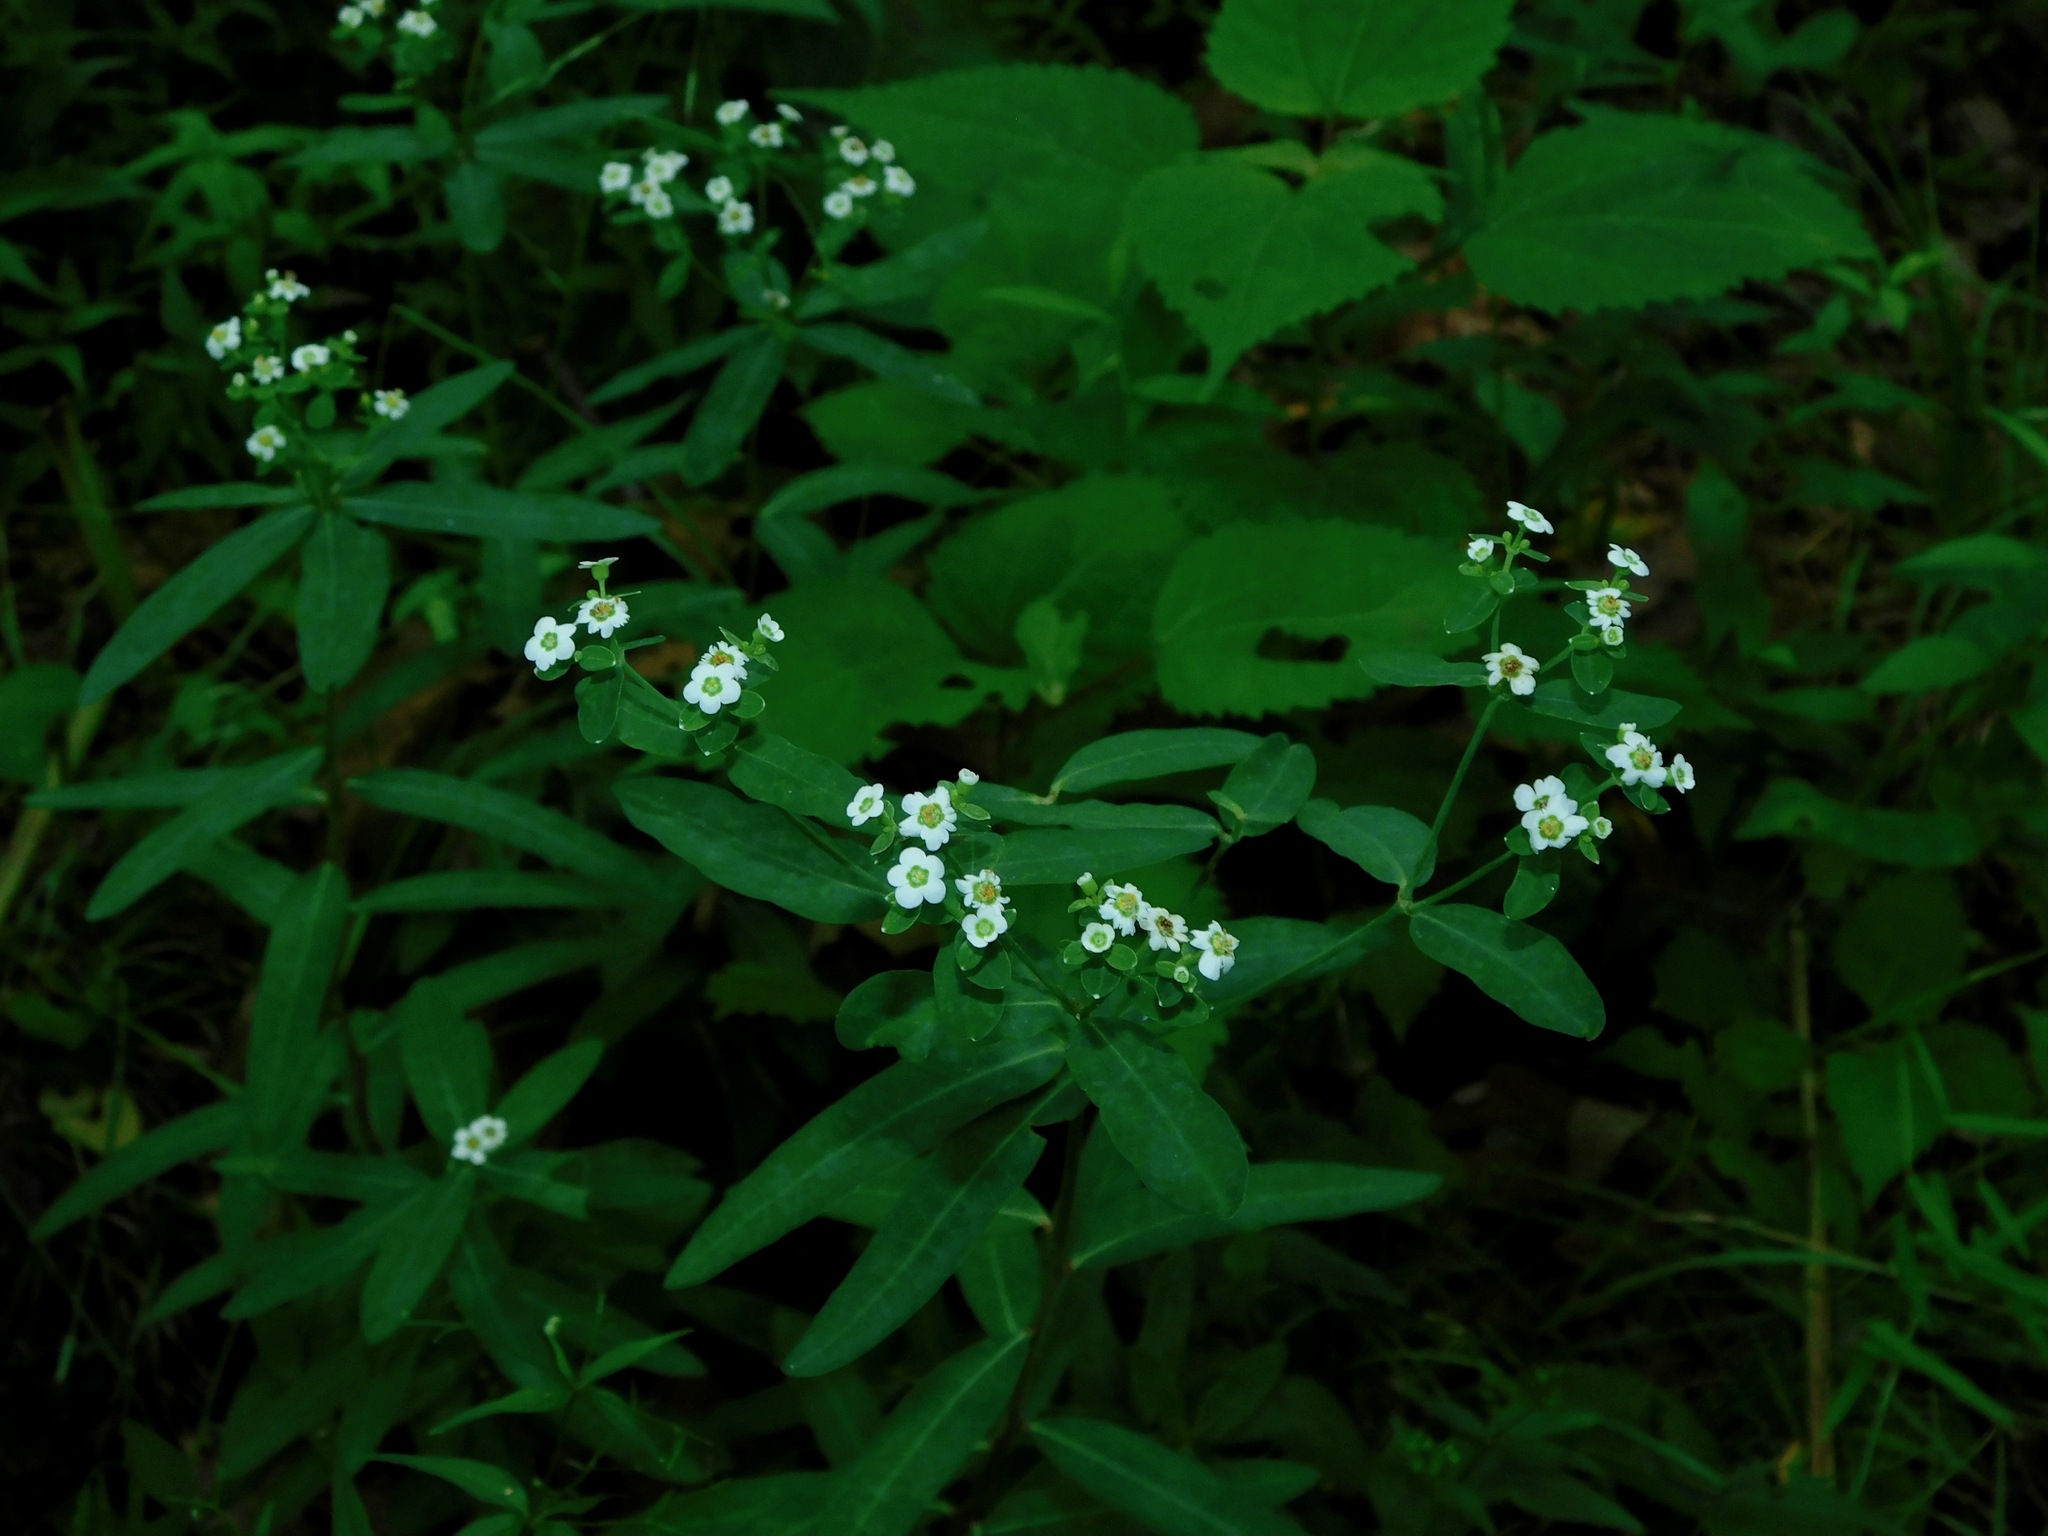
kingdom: Plantae
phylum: Tracheophyta
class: Magnoliopsida
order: Malpighiales
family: Euphorbiaceae
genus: Euphorbia
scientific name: Euphorbia corollata
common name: Flowering spurge
